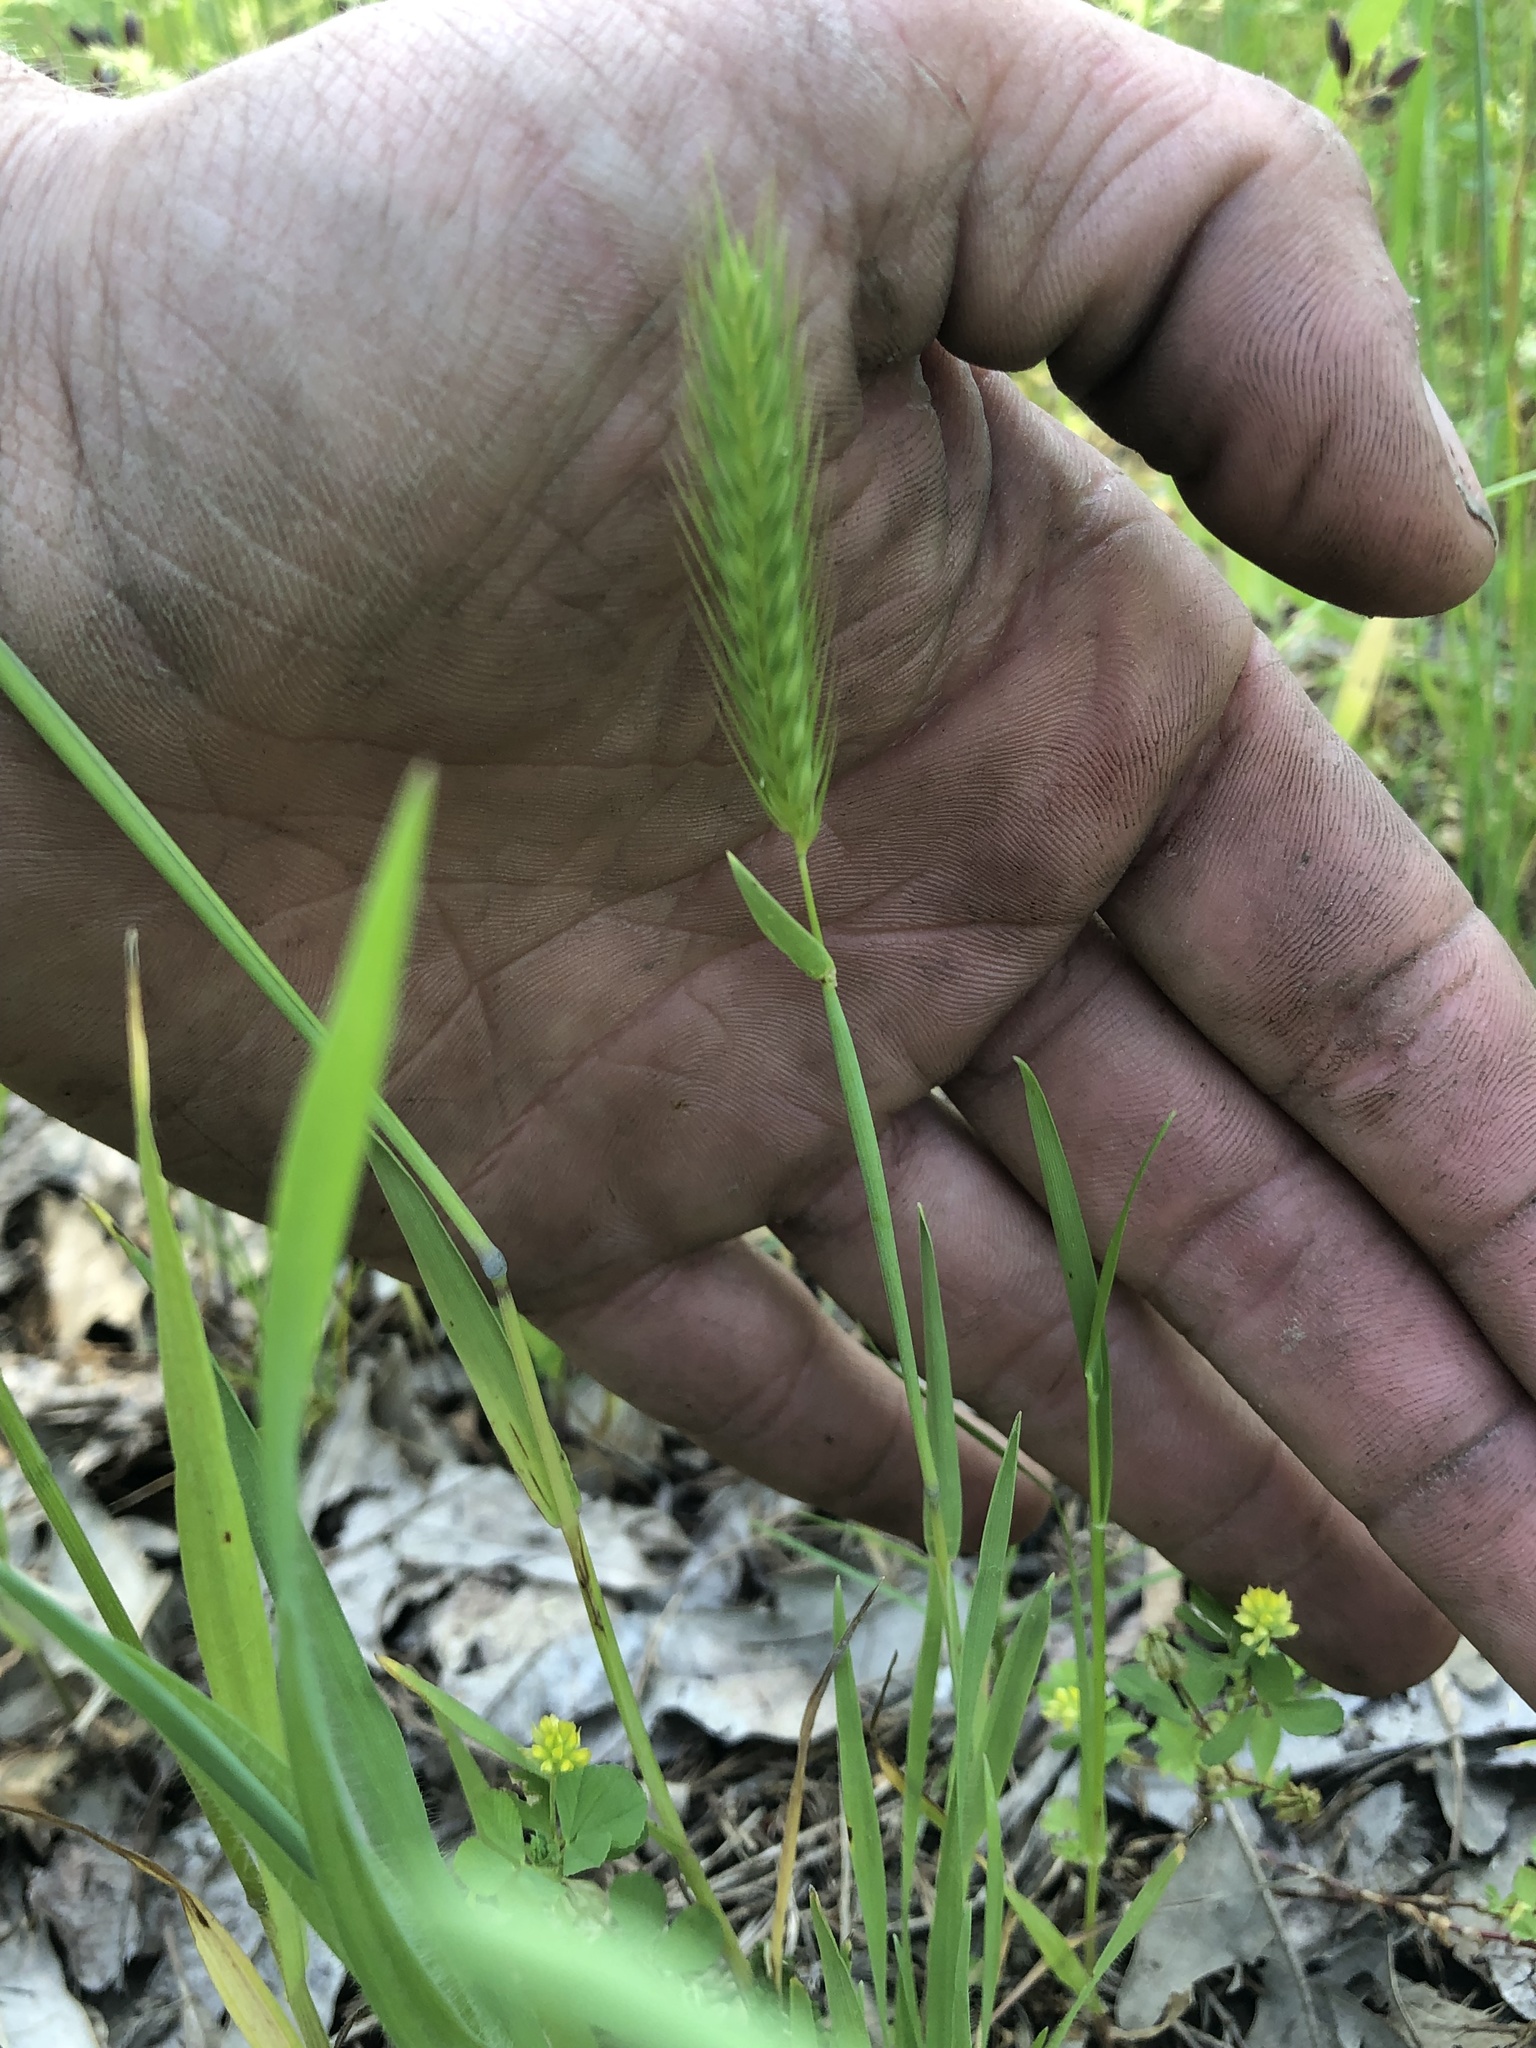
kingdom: Plantae
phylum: Tracheophyta
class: Liliopsida
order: Poales
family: Poaceae
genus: Hordeum
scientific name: Hordeum pusillum
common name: Little barley
